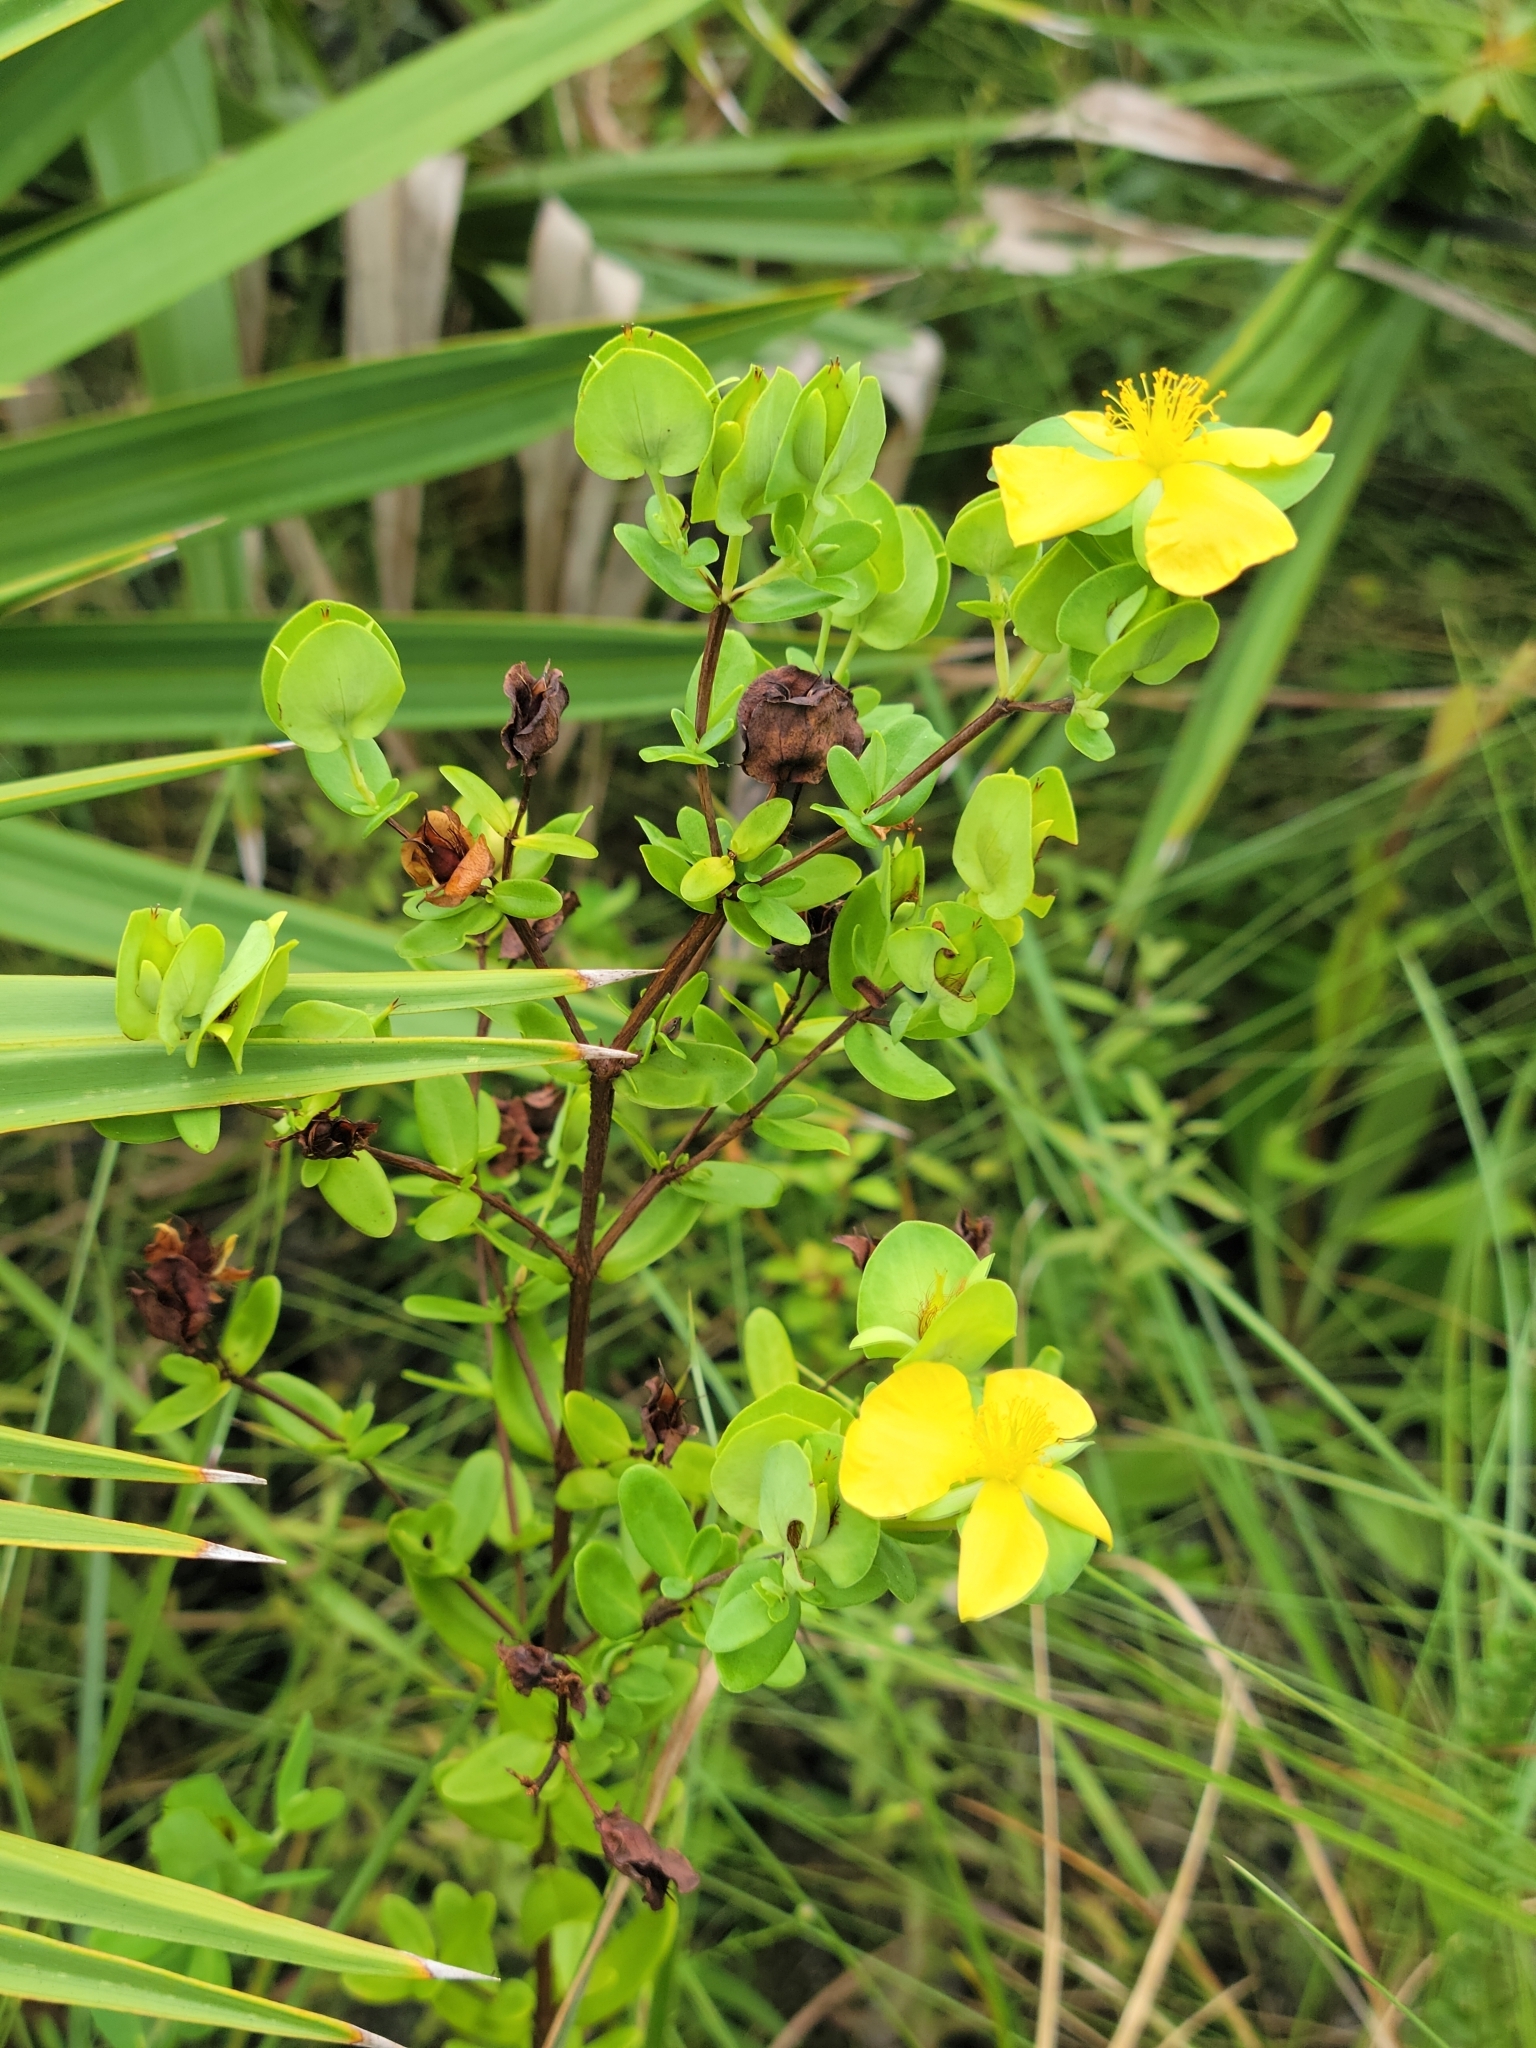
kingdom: Plantae
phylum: Tracheophyta
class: Magnoliopsida
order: Malpighiales
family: Hypericaceae
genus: Hypericum
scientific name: Hypericum crux-andreae
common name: St.-peter's-wort
